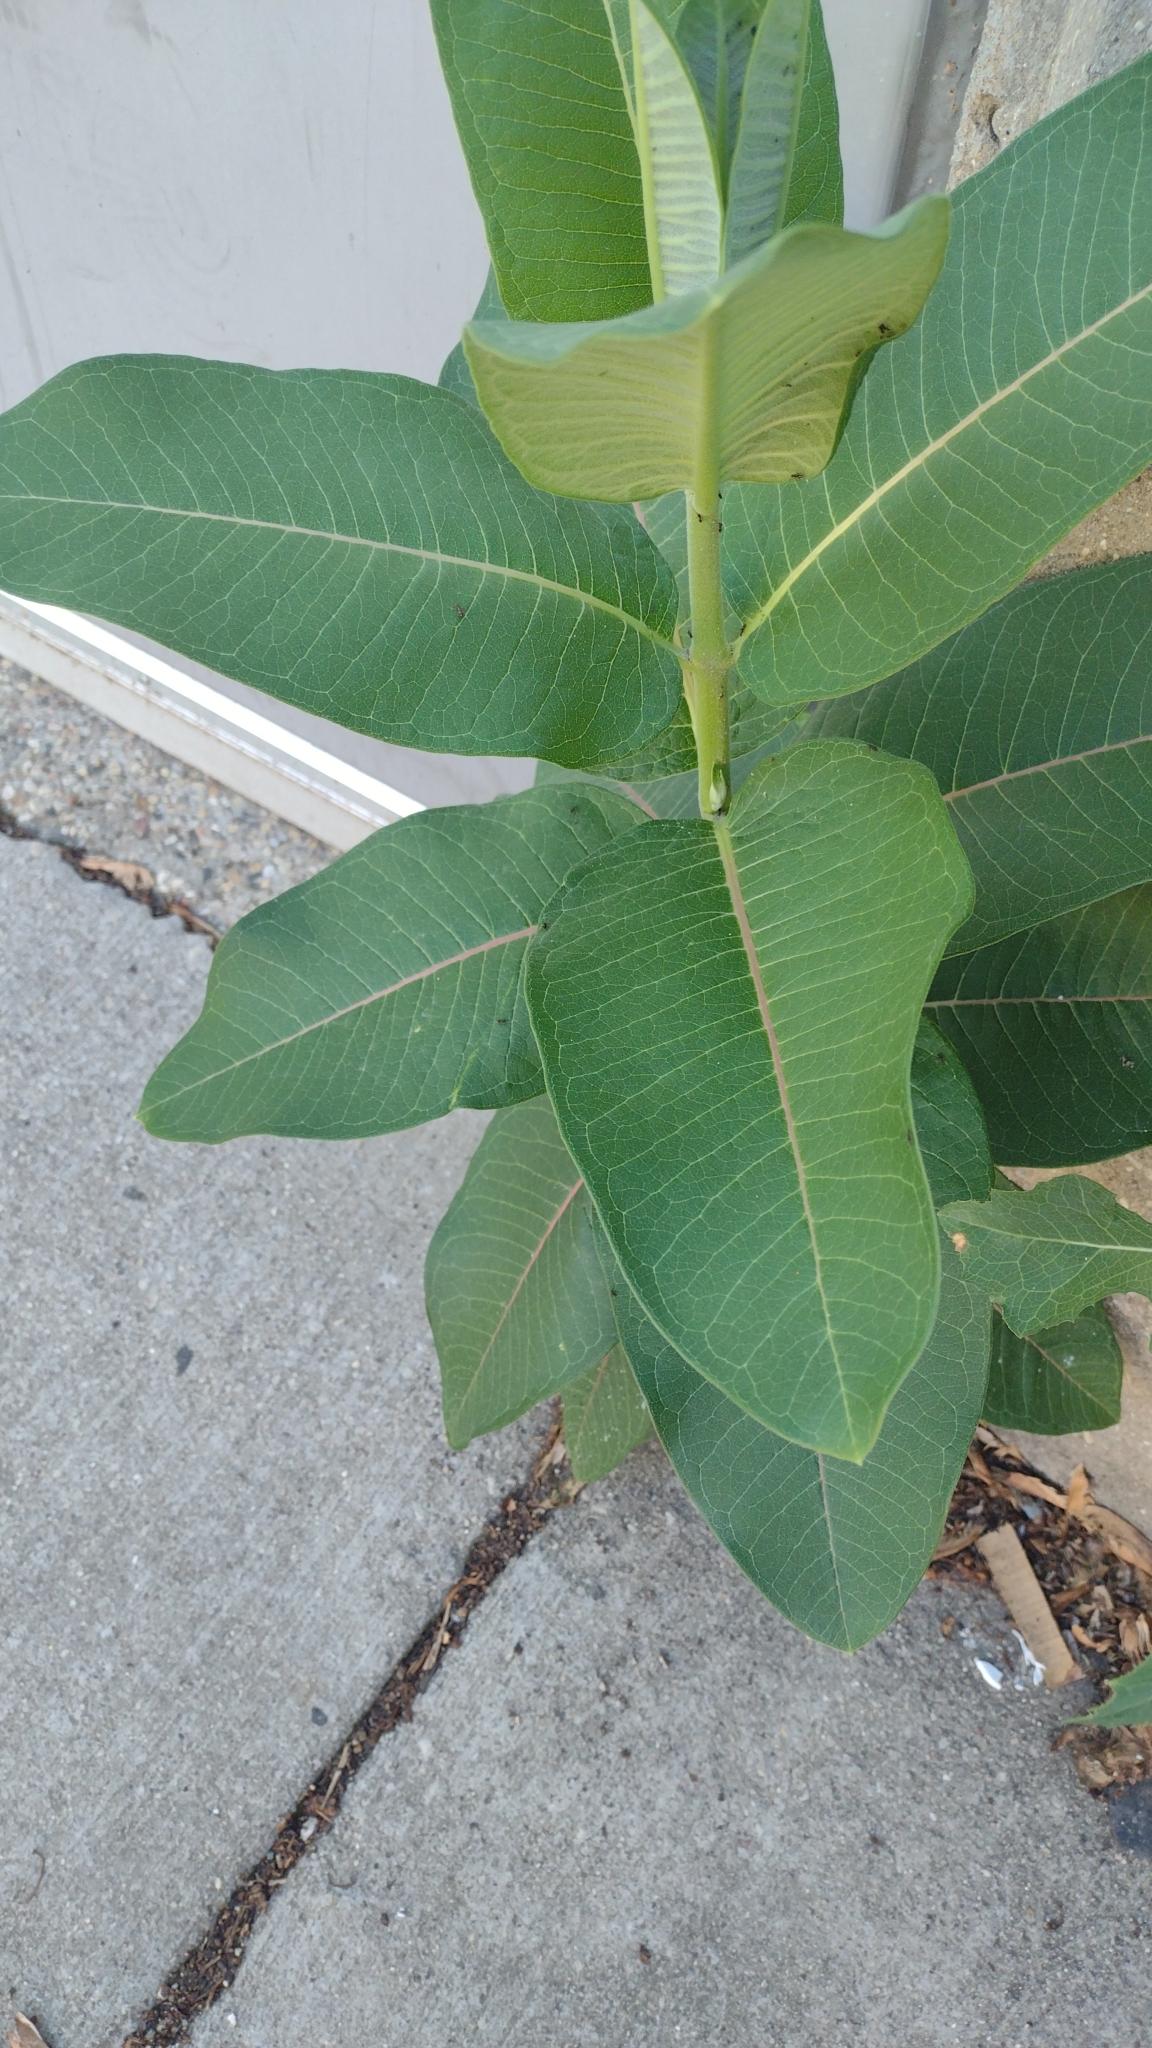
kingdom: Plantae
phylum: Tracheophyta
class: Magnoliopsida
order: Gentianales
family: Apocynaceae
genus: Asclepias
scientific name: Asclepias syriaca
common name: Common milkweed
